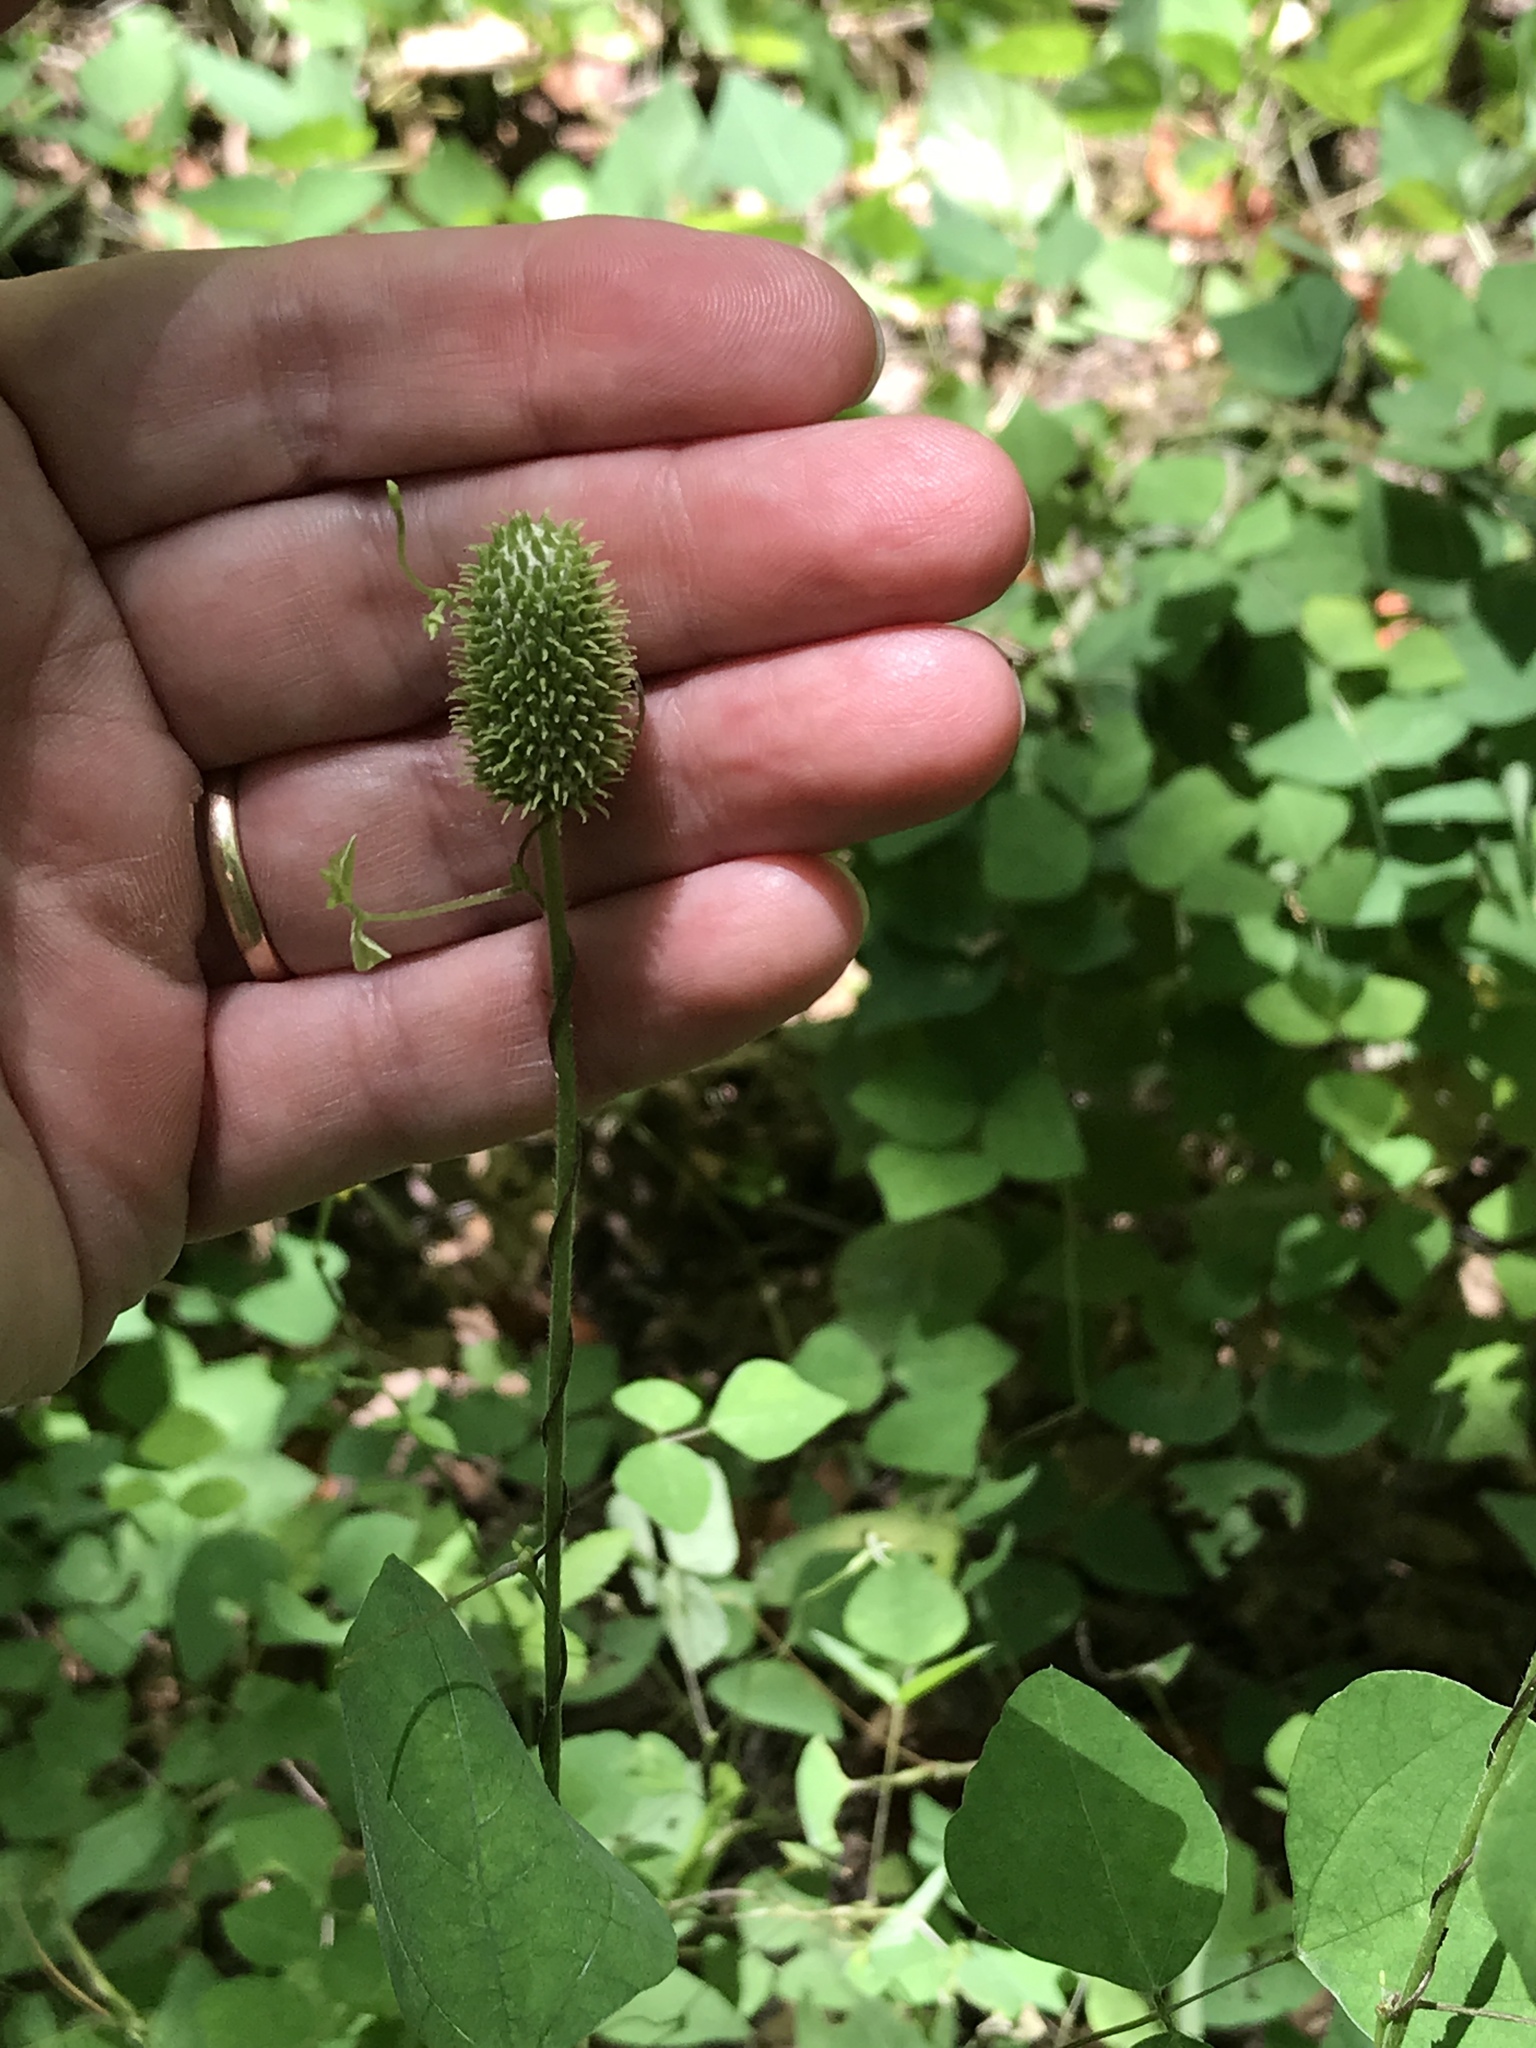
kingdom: Plantae
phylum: Tracheophyta
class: Magnoliopsida
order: Ranunculales
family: Ranunculaceae
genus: Anemone
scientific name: Anemone virginiana
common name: Tall anemone
